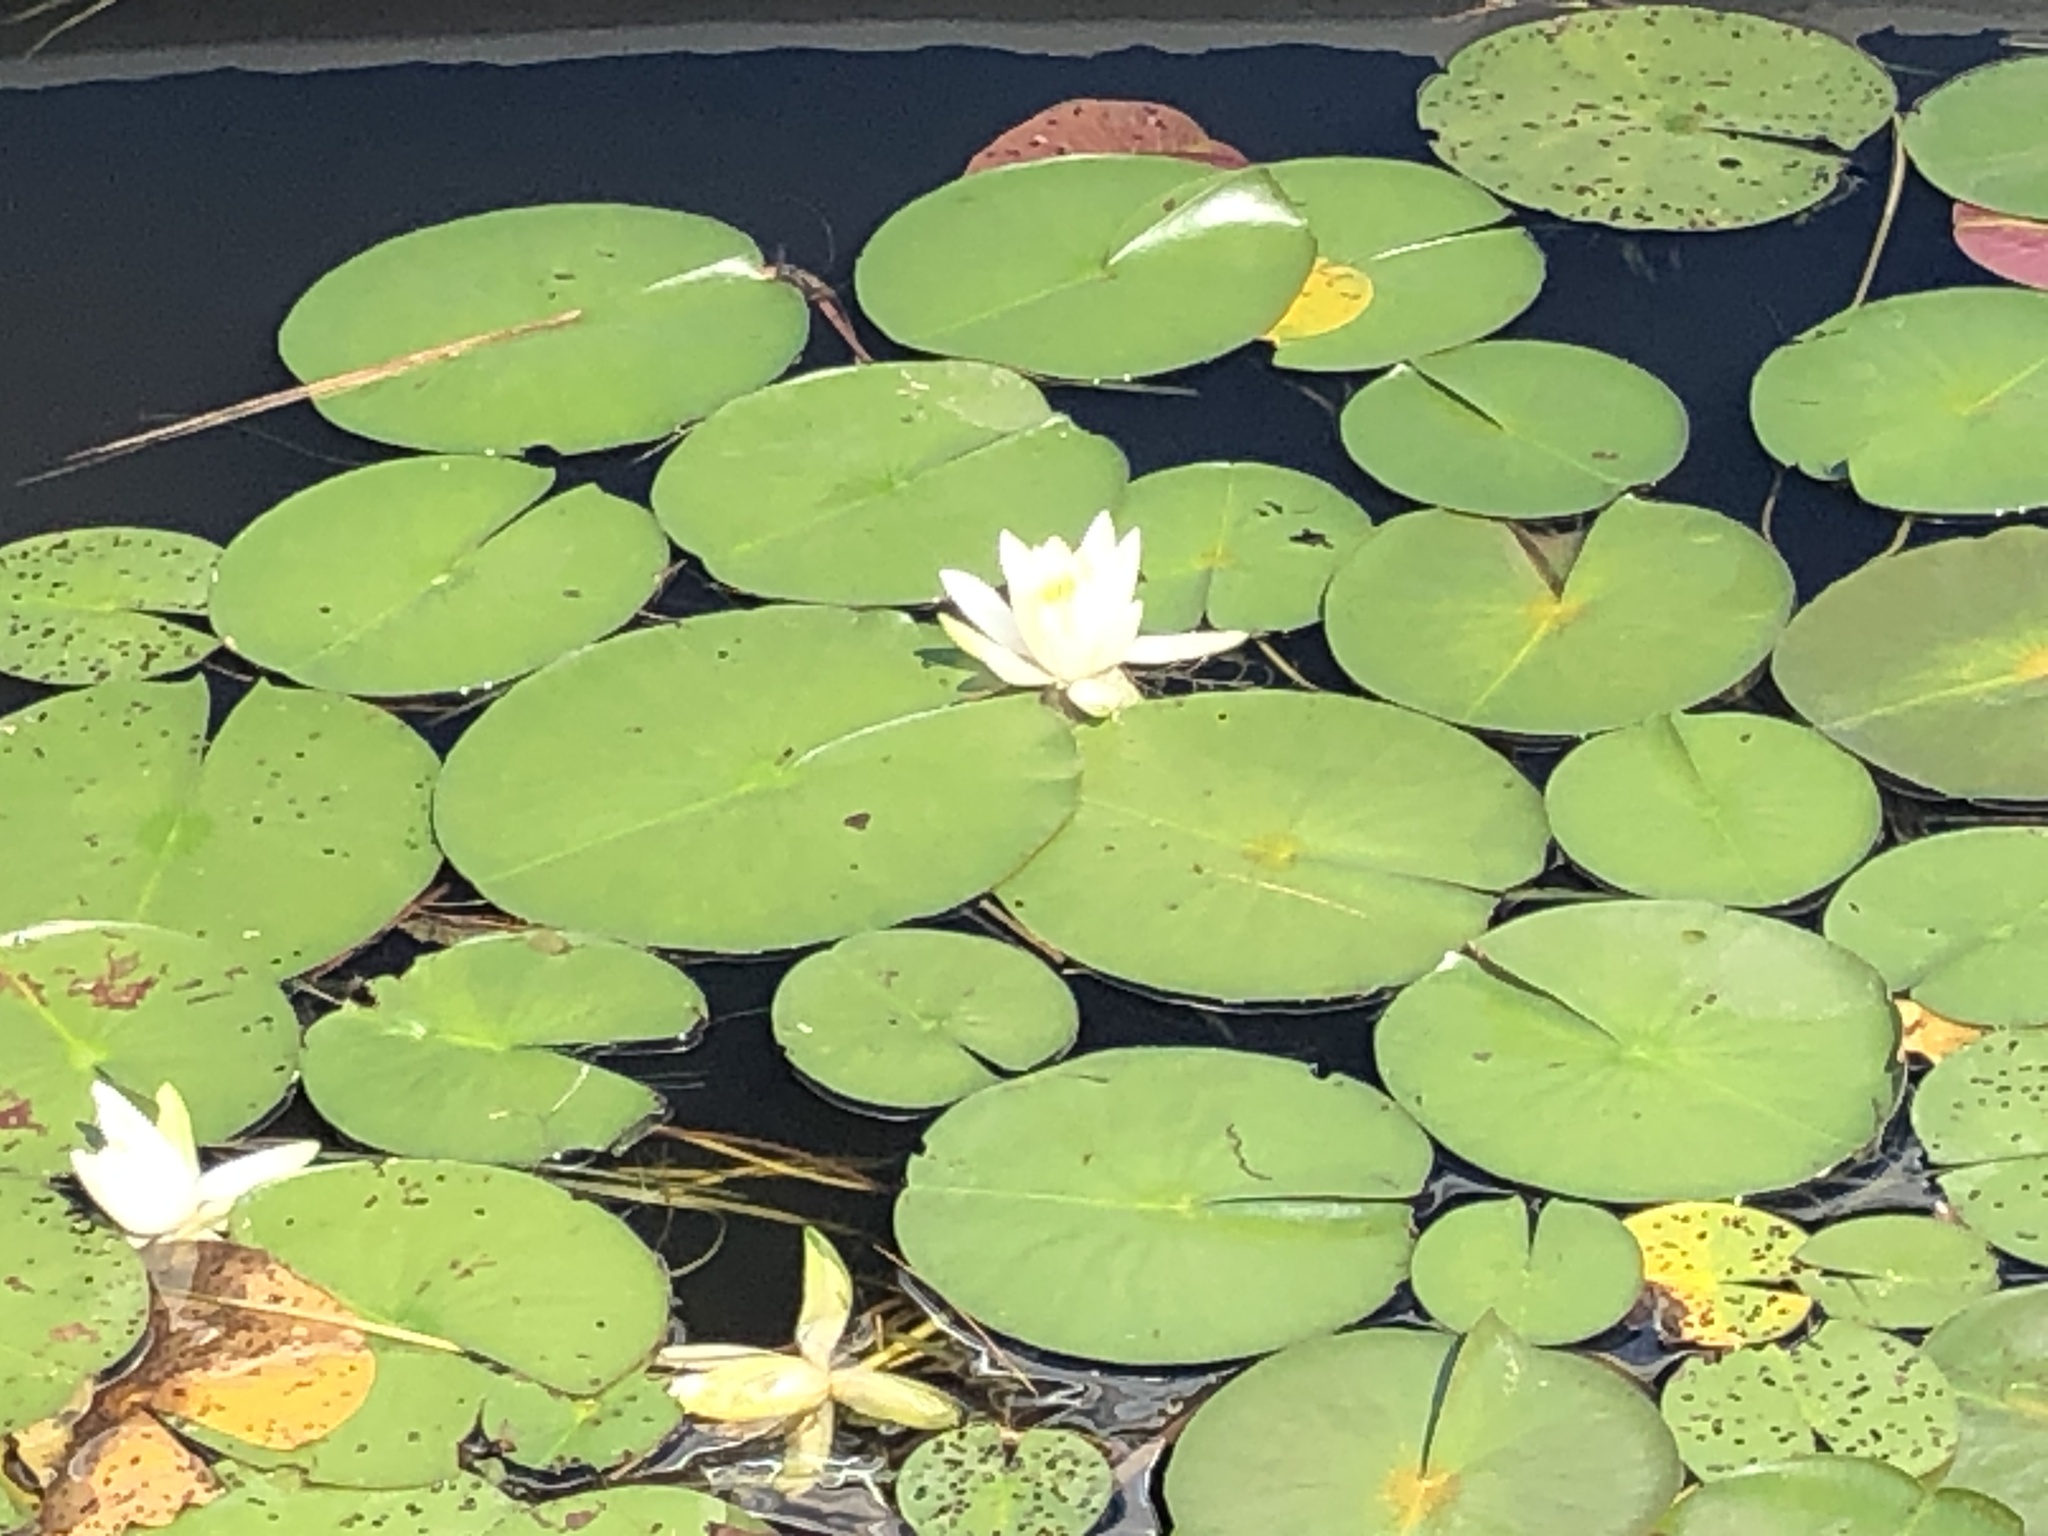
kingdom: Plantae
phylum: Tracheophyta
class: Magnoliopsida
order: Nymphaeales
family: Nymphaeaceae
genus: Nymphaea
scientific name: Nymphaea odorata
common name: Fragrant water-lily
